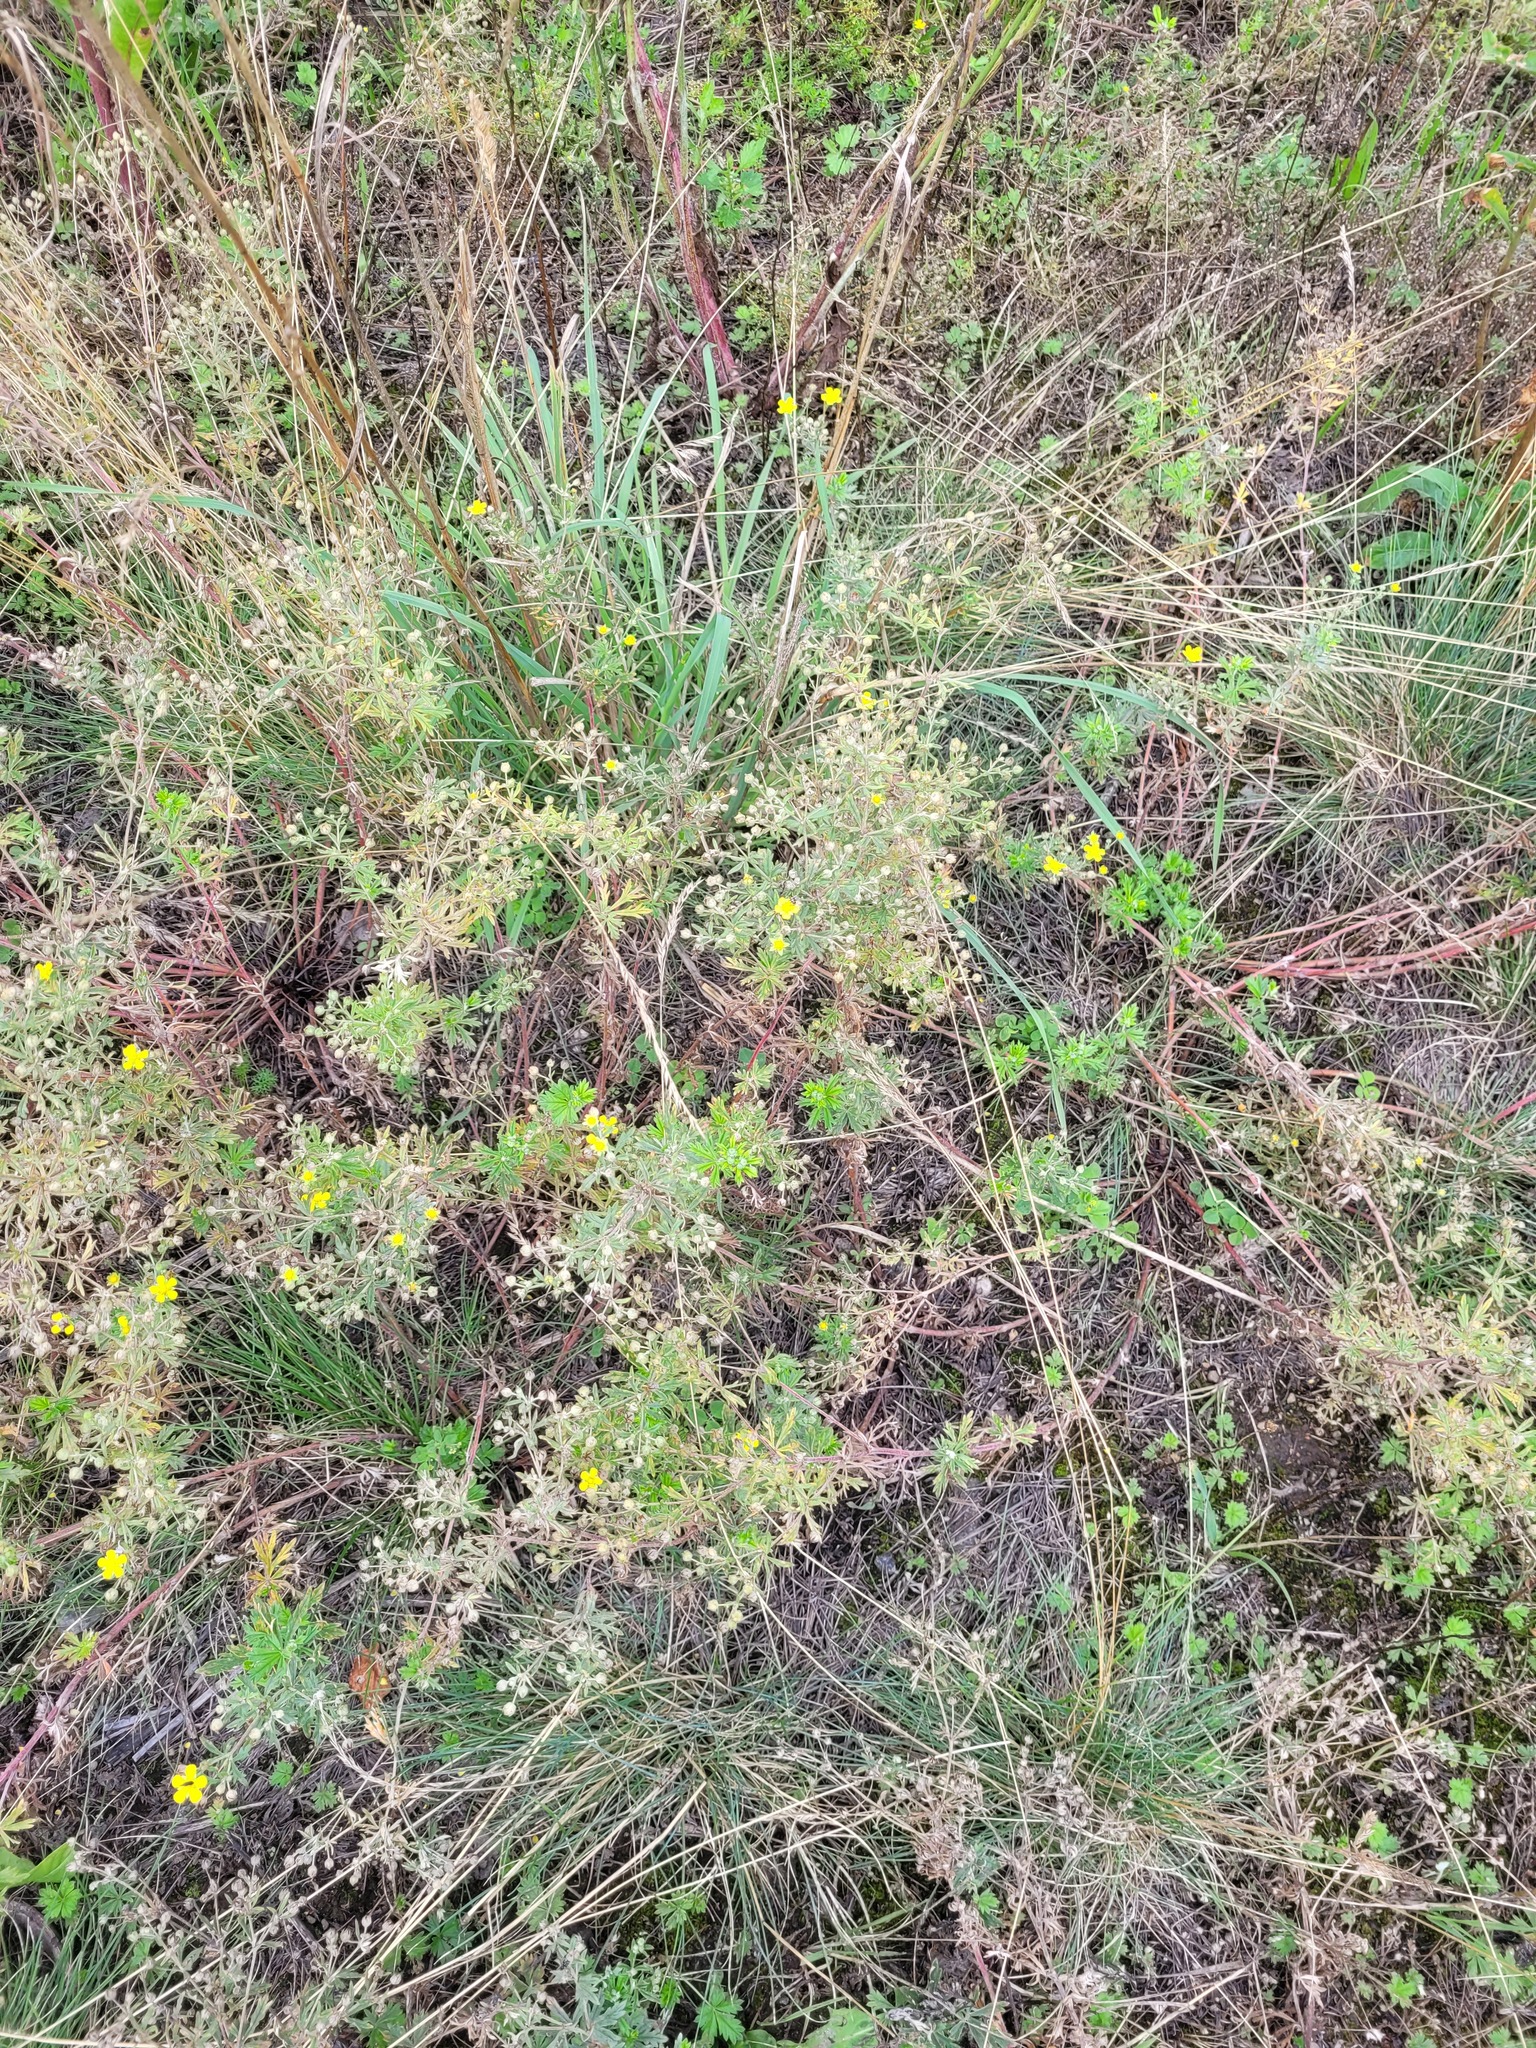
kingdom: Plantae
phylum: Tracheophyta
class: Magnoliopsida
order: Rosales
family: Rosaceae
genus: Potentilla
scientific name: Potentilla argentea
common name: Hoary cinquefoil
